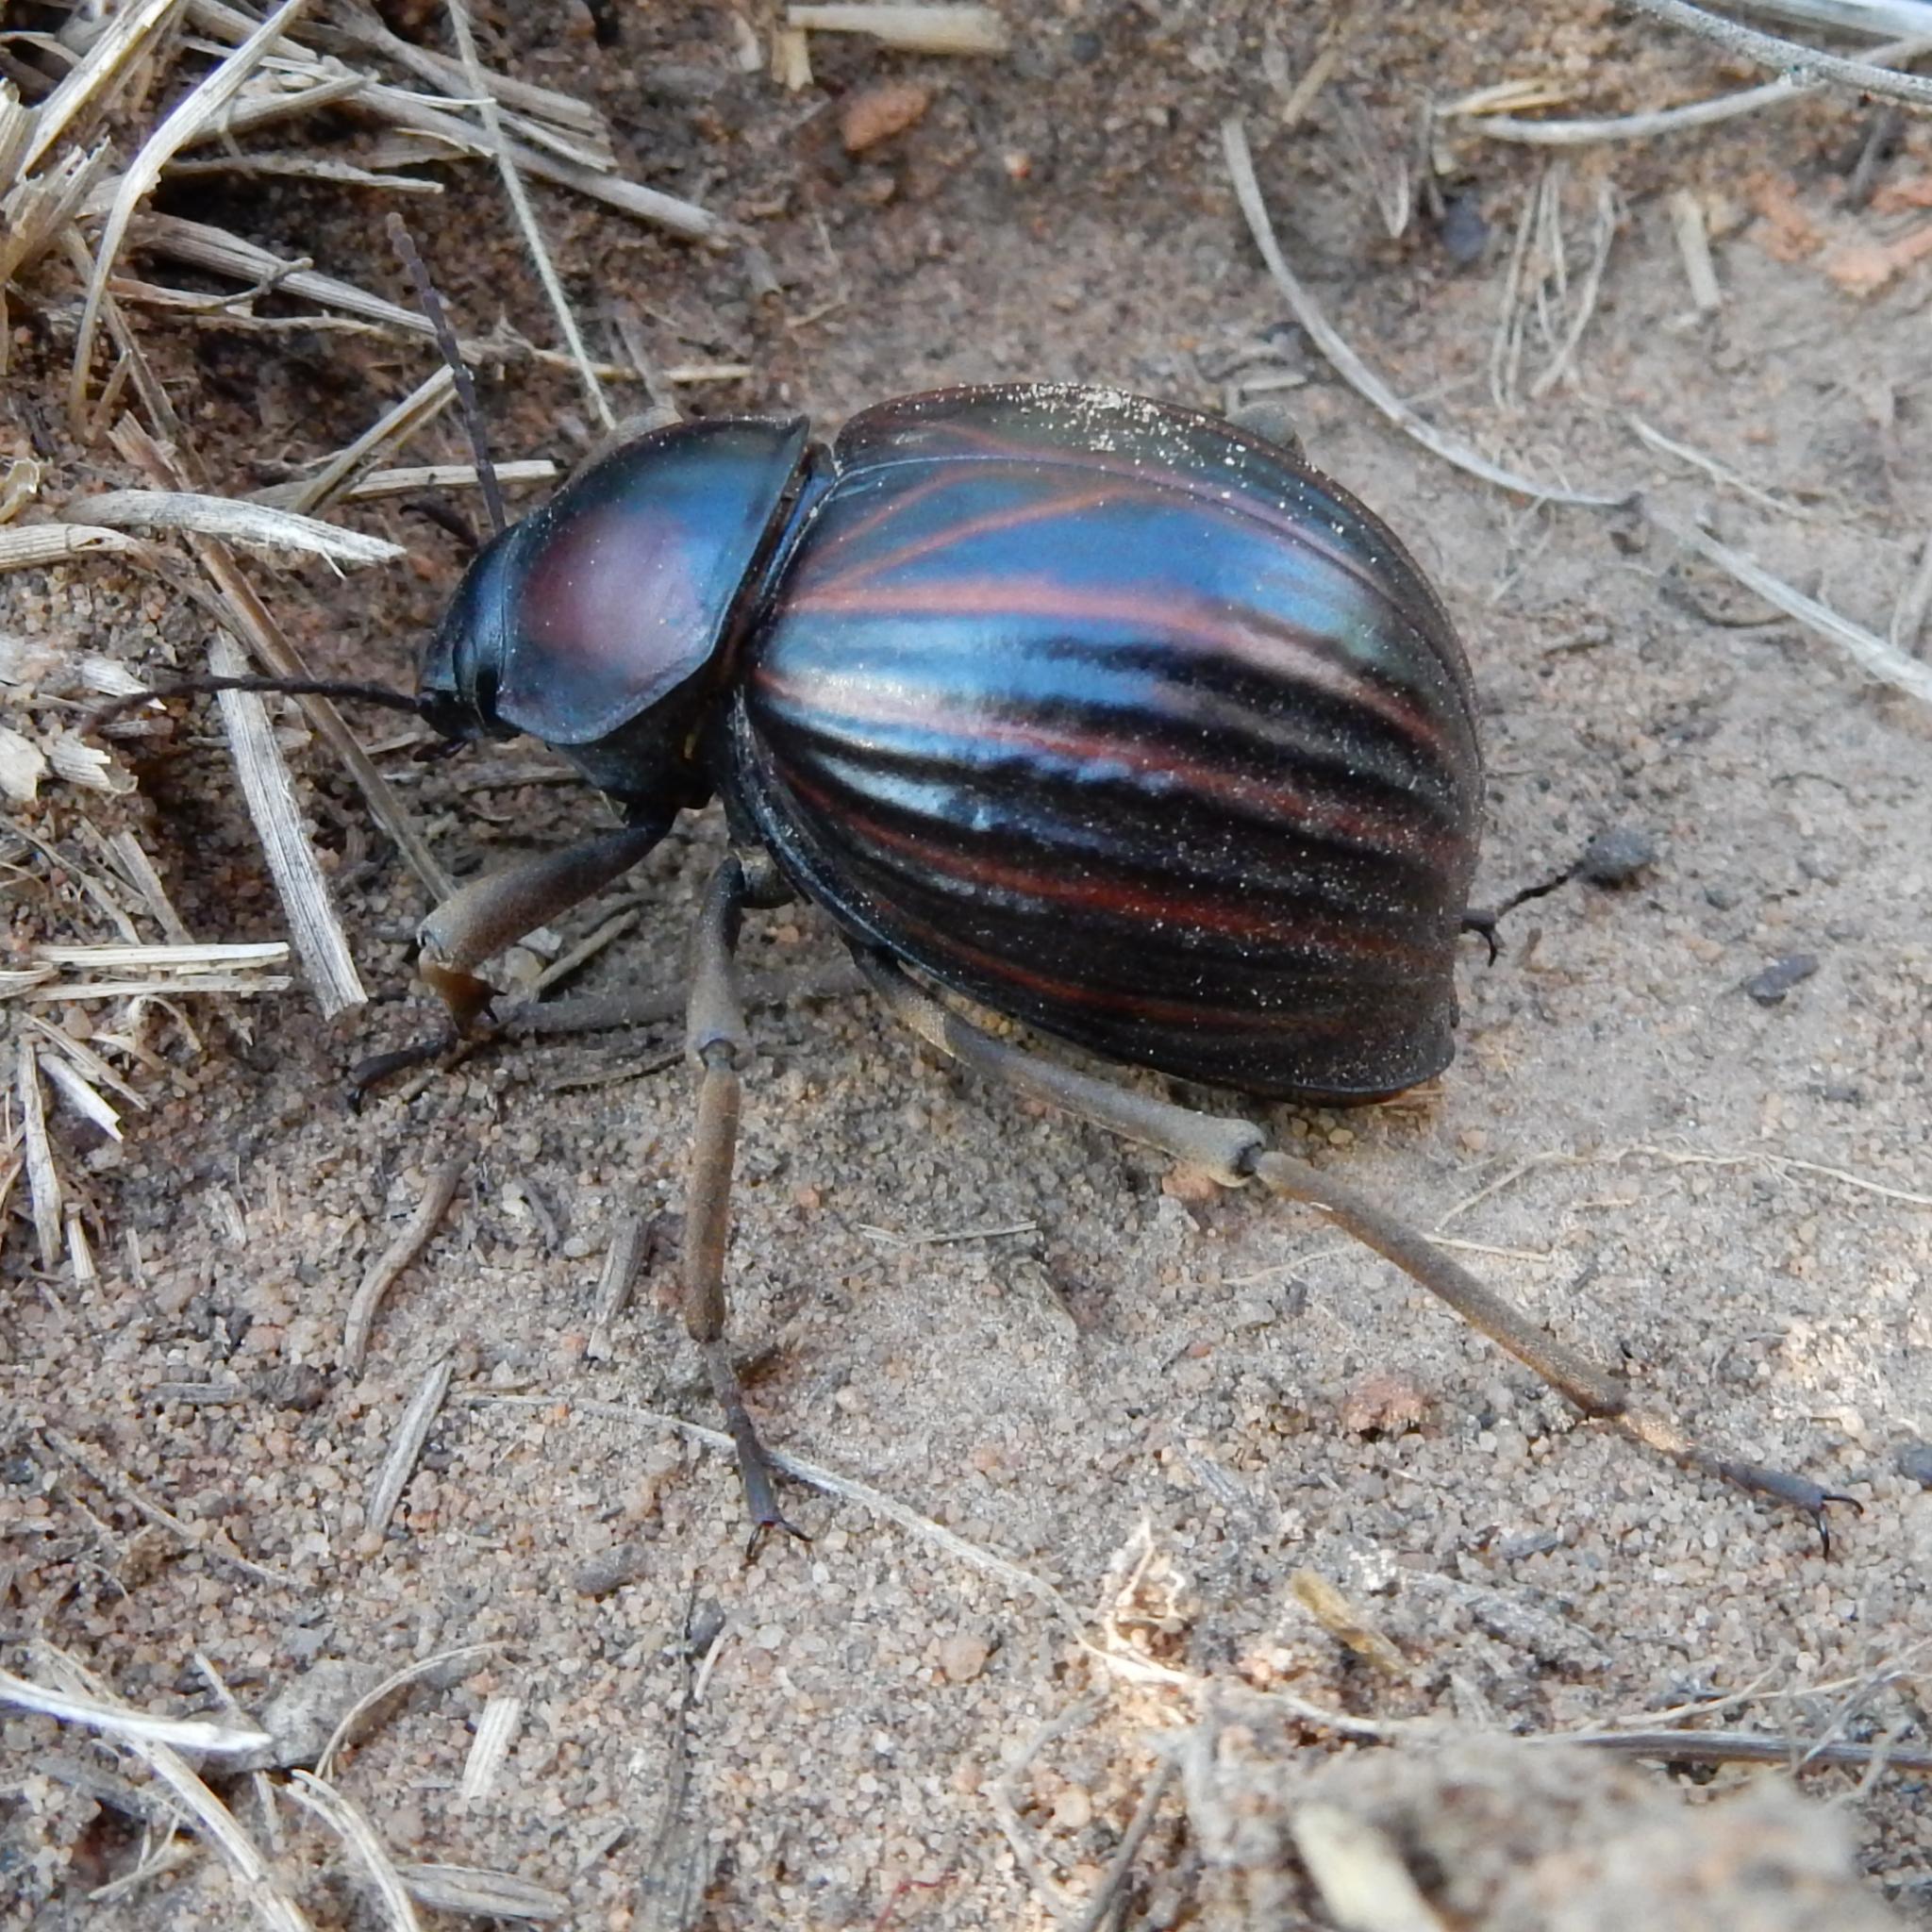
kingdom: Animalia
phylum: Arthropoda
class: Insecta
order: Coleoptera
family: Tenebrionidae
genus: Mariazofia
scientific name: Mariazofia
